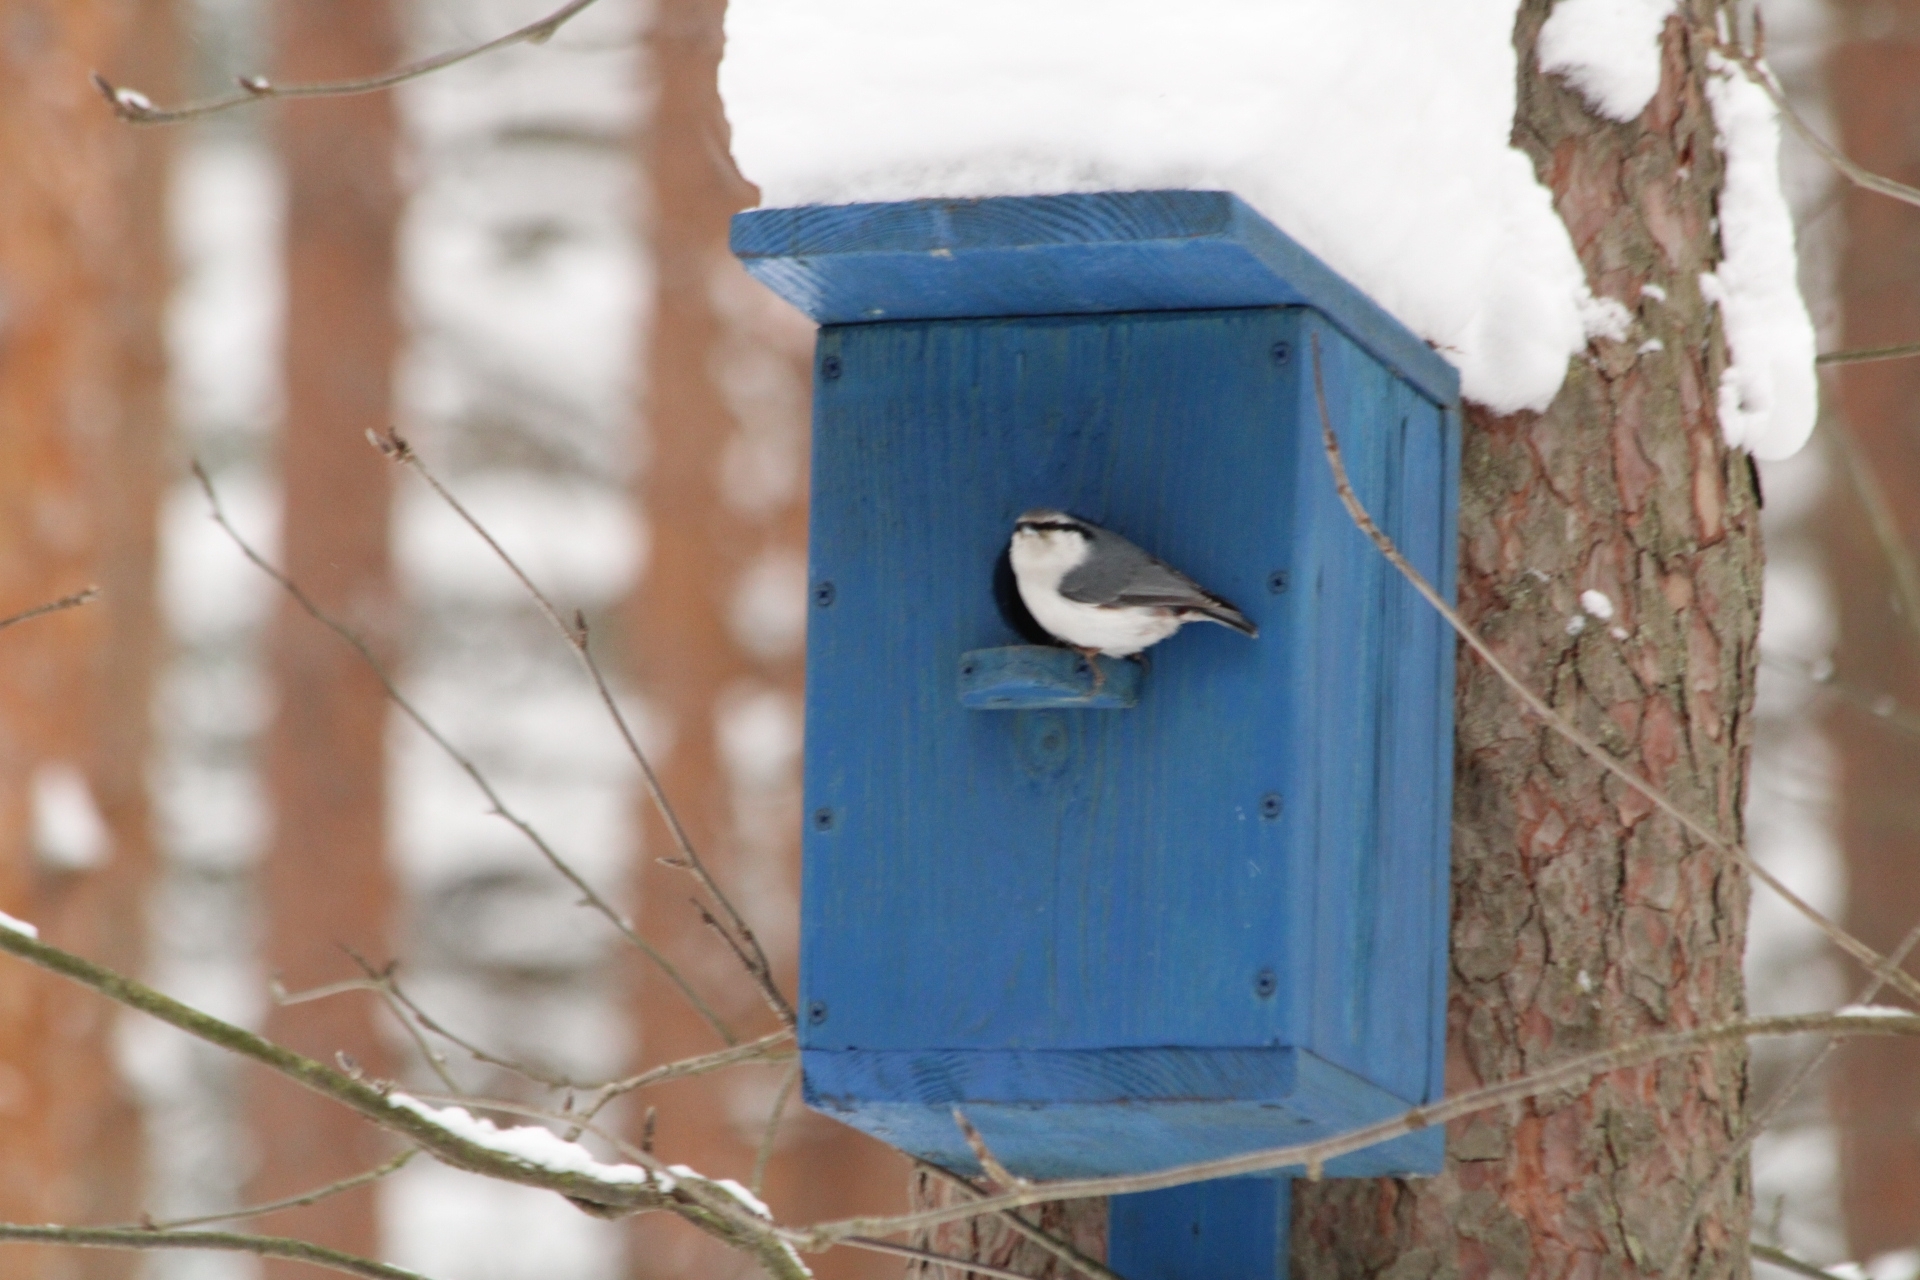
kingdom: Animalia
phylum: Chordata
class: Aves
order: Passeriformes
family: Sittidae
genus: Sitta
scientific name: Sitta europaea
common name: Eurasian nuthatch
